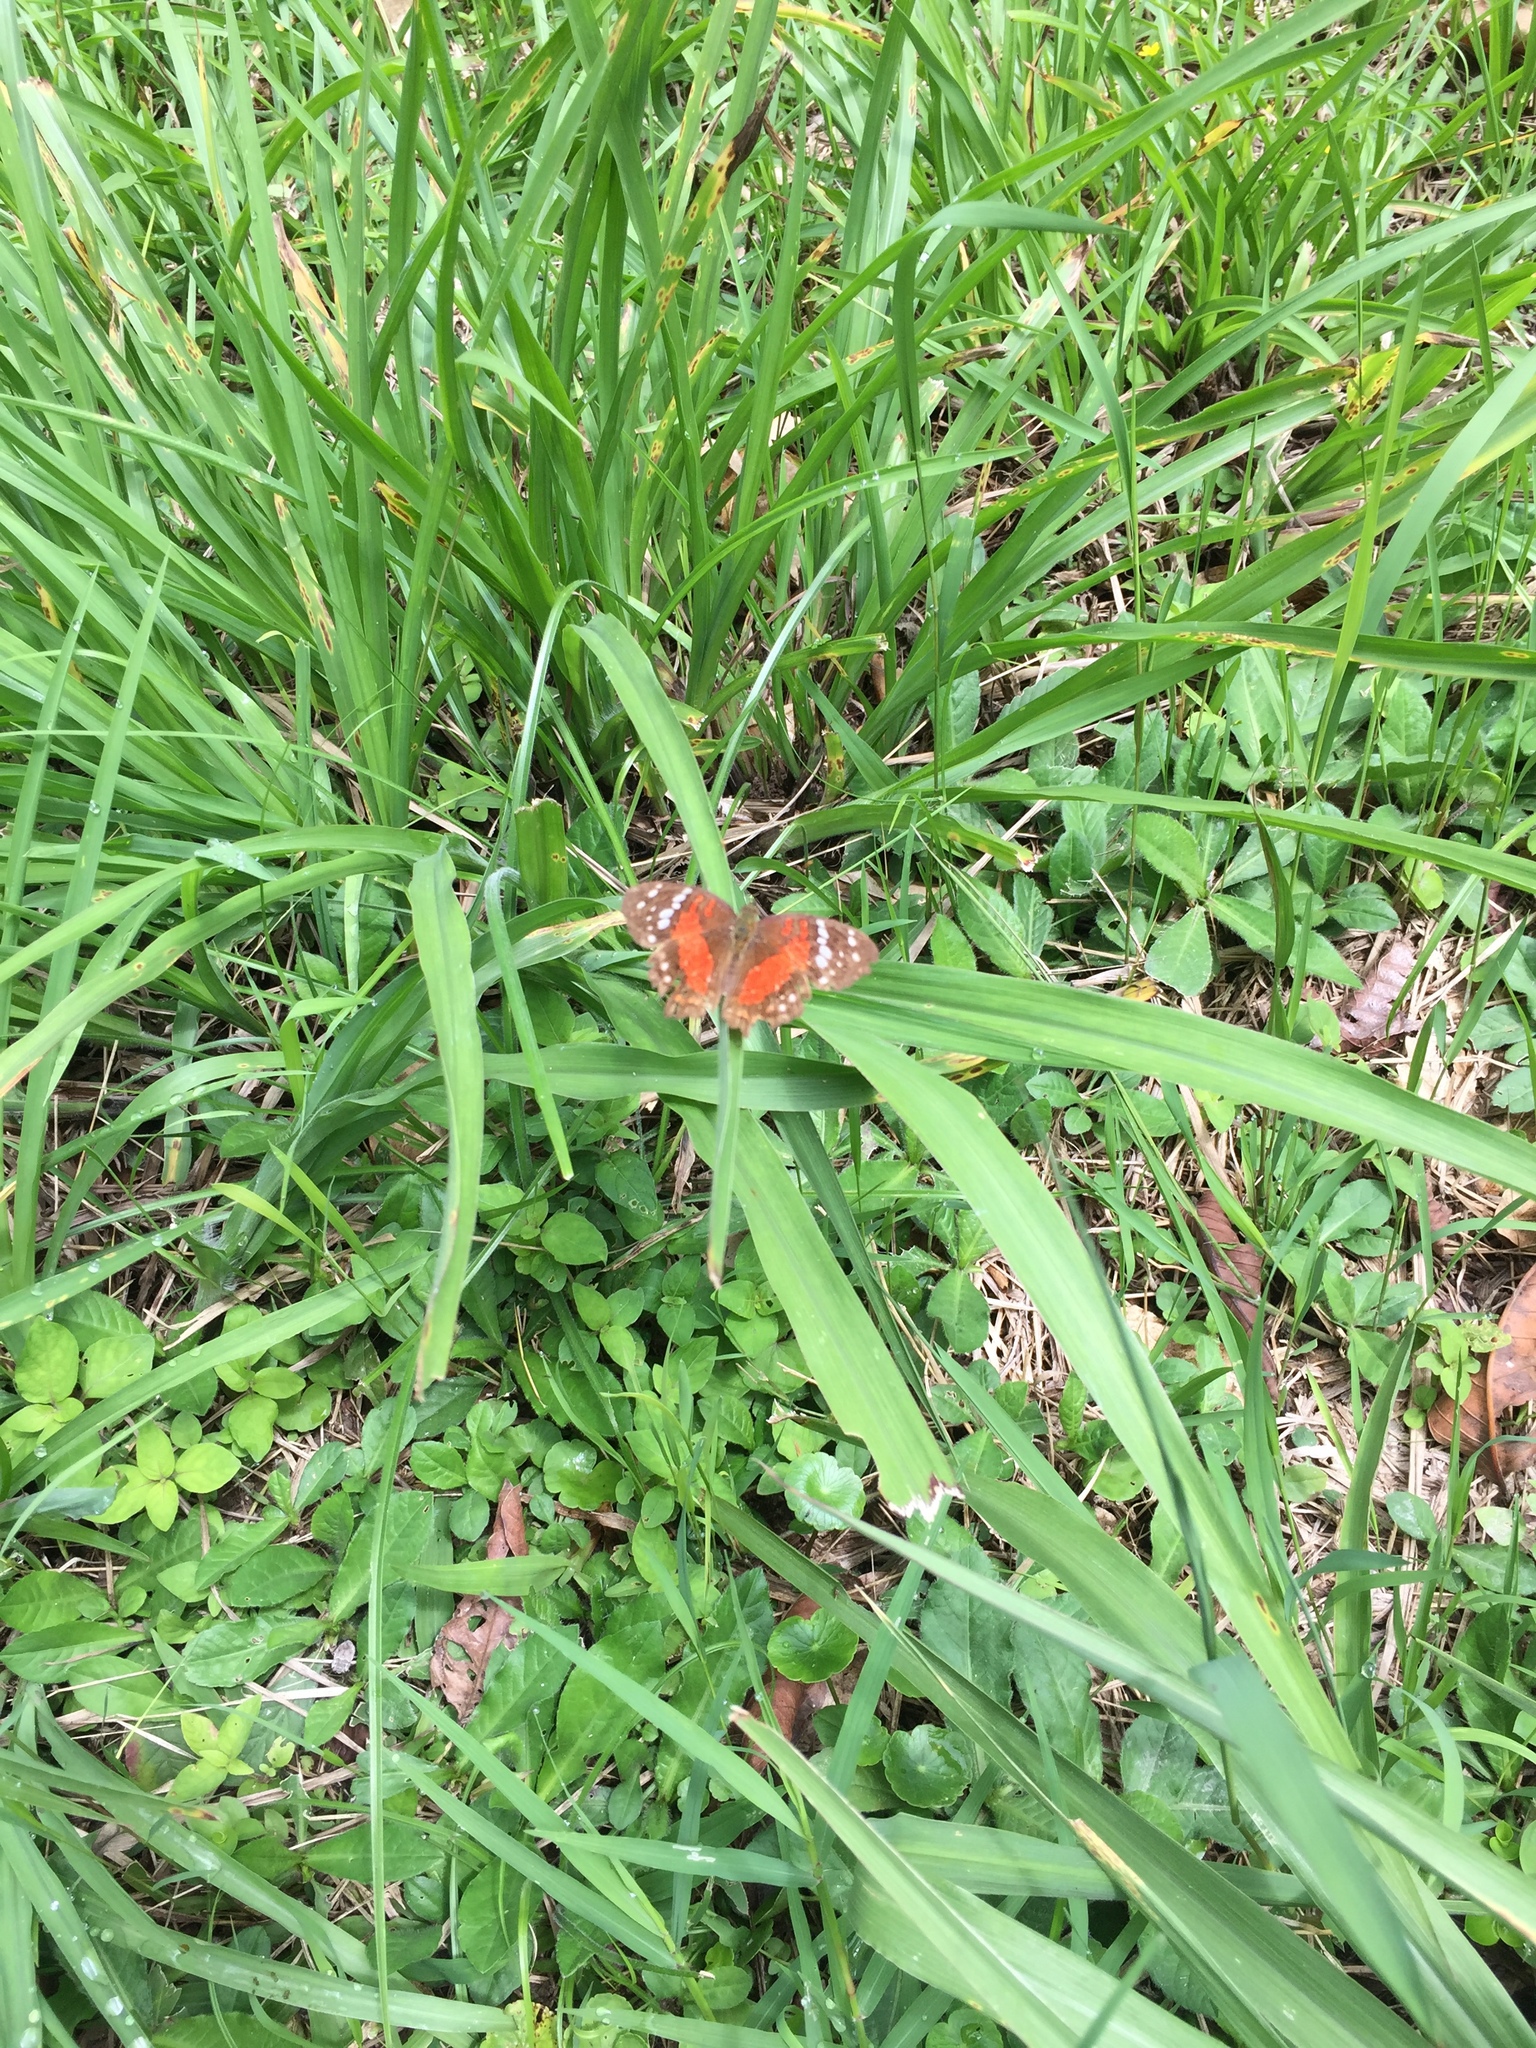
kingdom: Animalia
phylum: Arthropoda
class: Insecta
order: Lepidoptera
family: Nymphalidae
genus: Anartia
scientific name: Anartia amathea
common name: Red peacock
